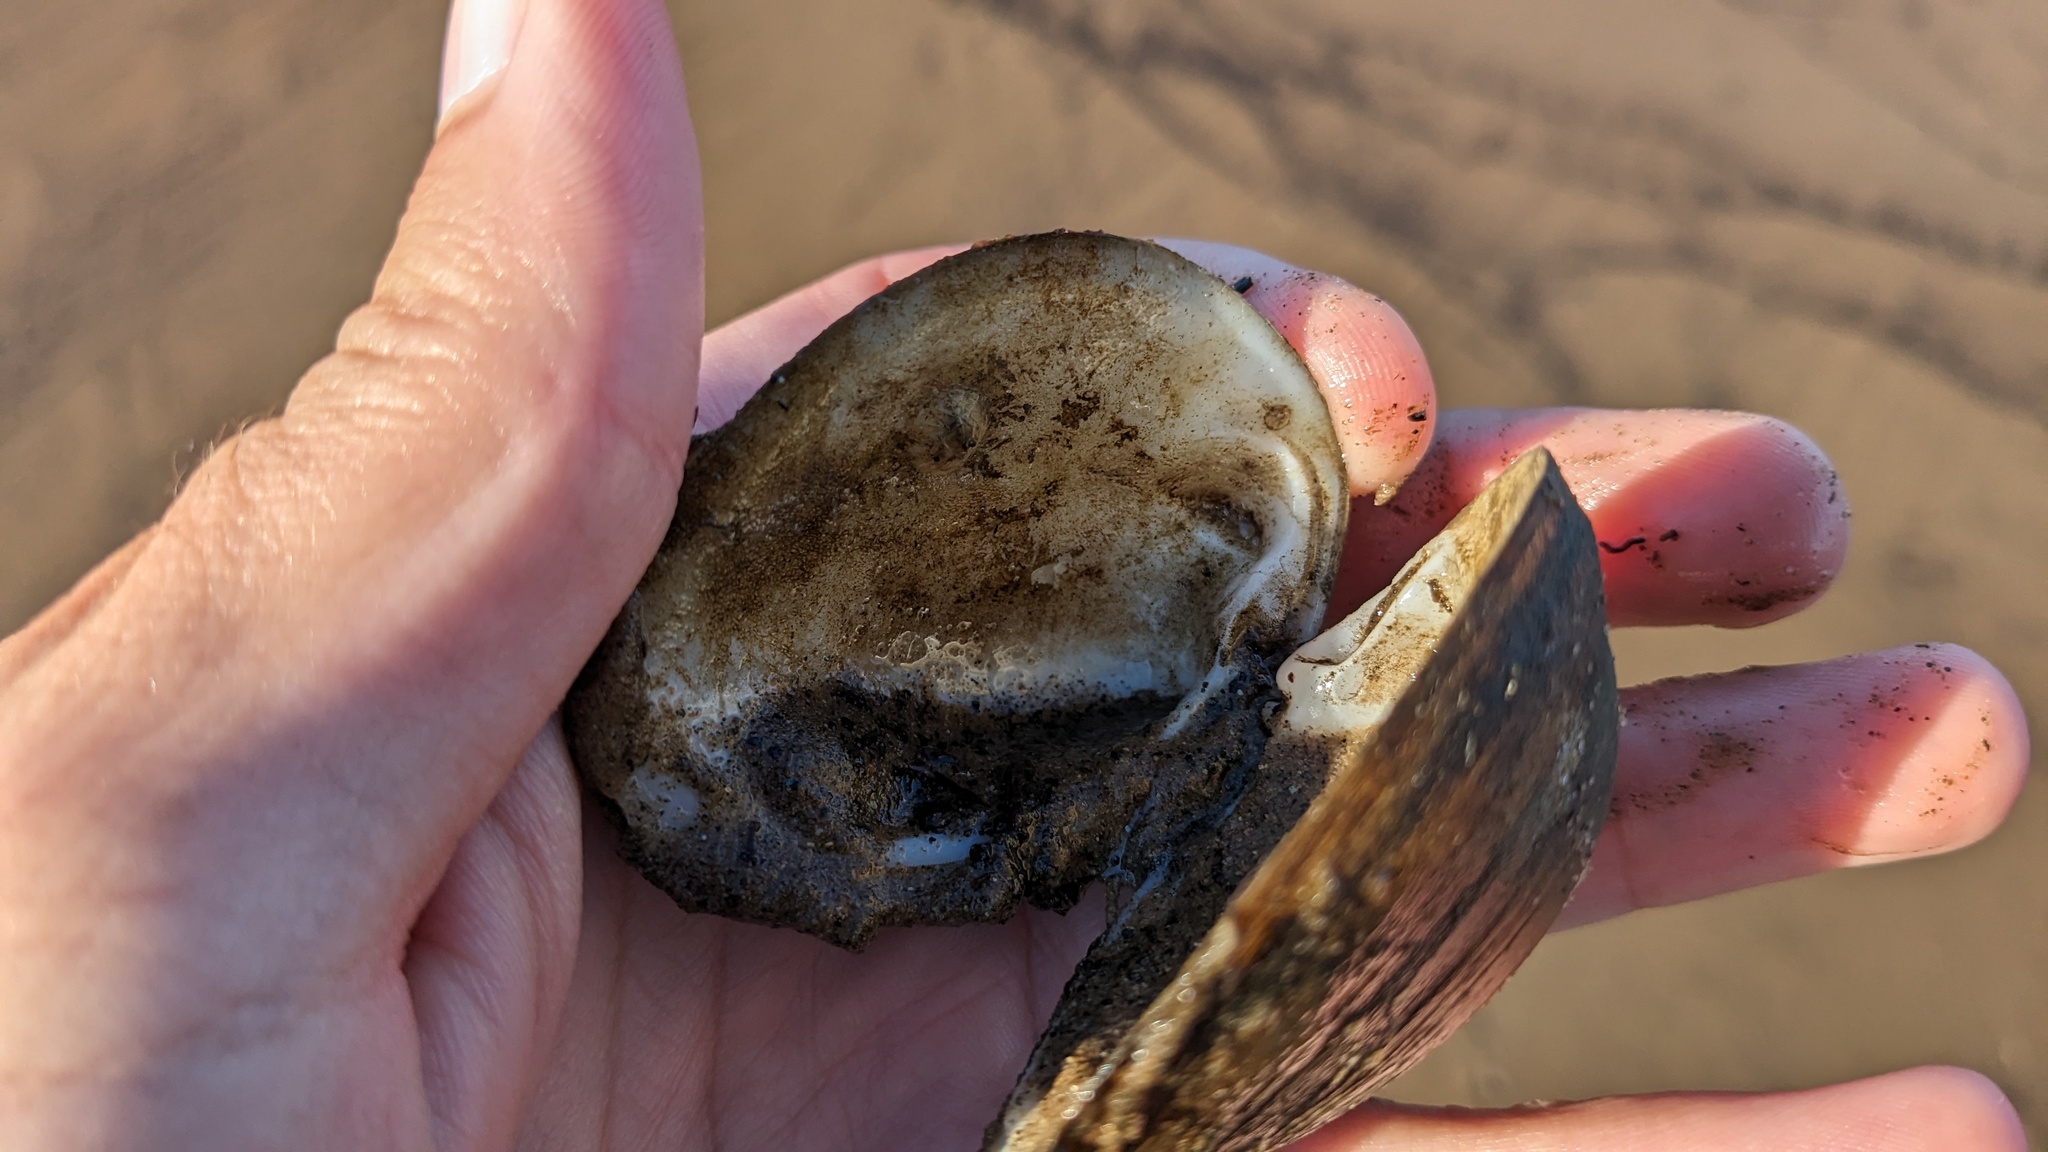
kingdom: Animalia
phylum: Mollusca
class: Bivalvia
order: Venerida
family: Mactridae
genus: Rangia
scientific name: Rangia cuneata
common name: Atlantic rangia
